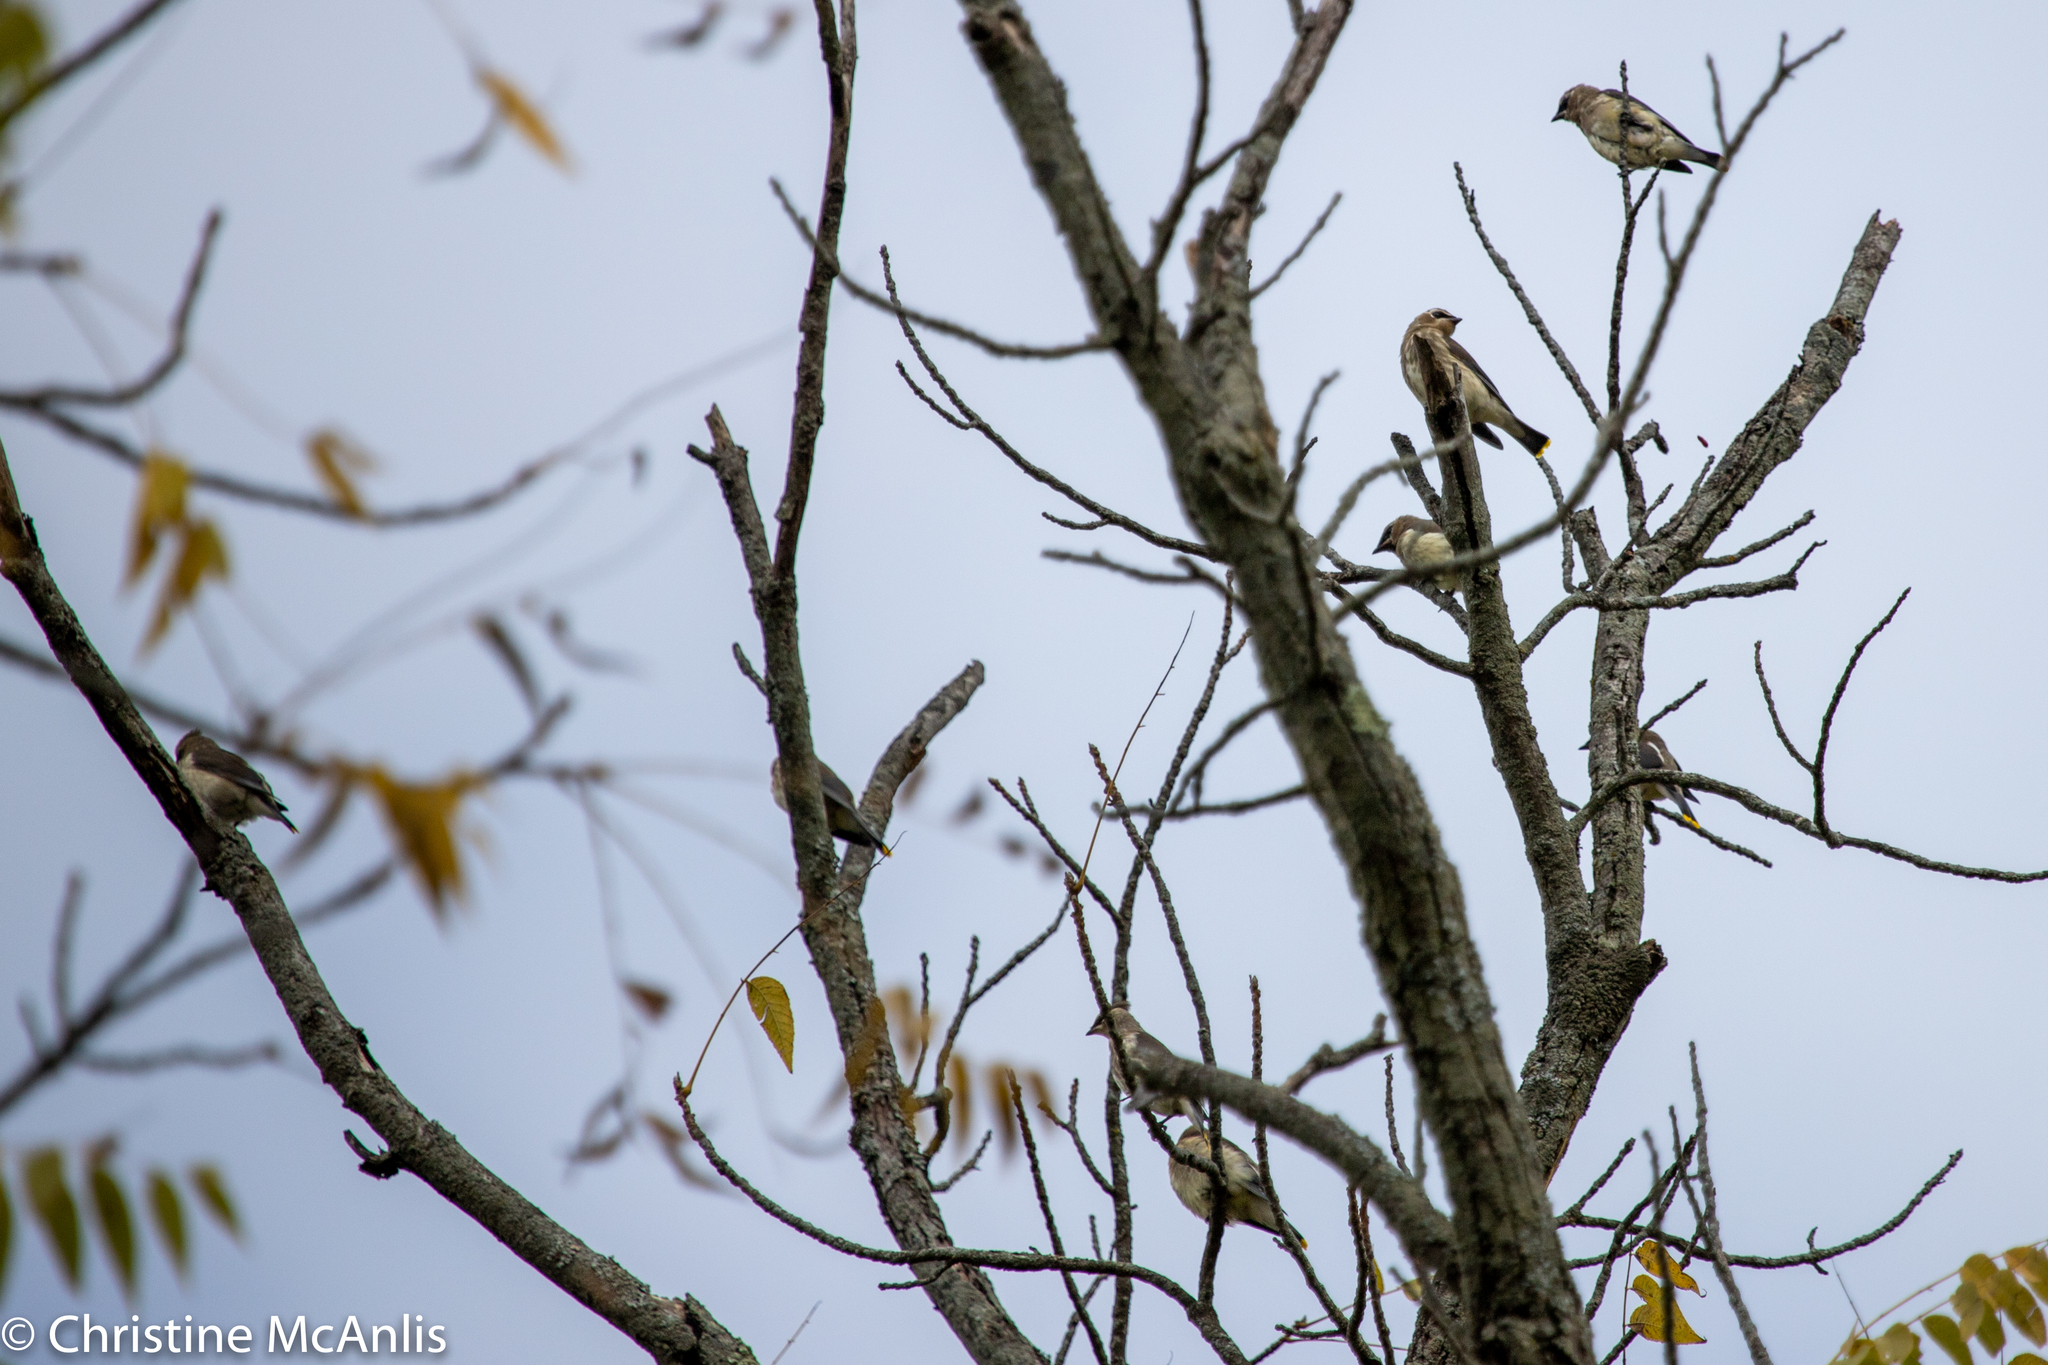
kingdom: Animalia
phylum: Chordata
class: Aves
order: Passeriformes
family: Bombycillidae
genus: Bombycilla
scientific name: Bombycilla cedrorum
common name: Cedar waxwing
